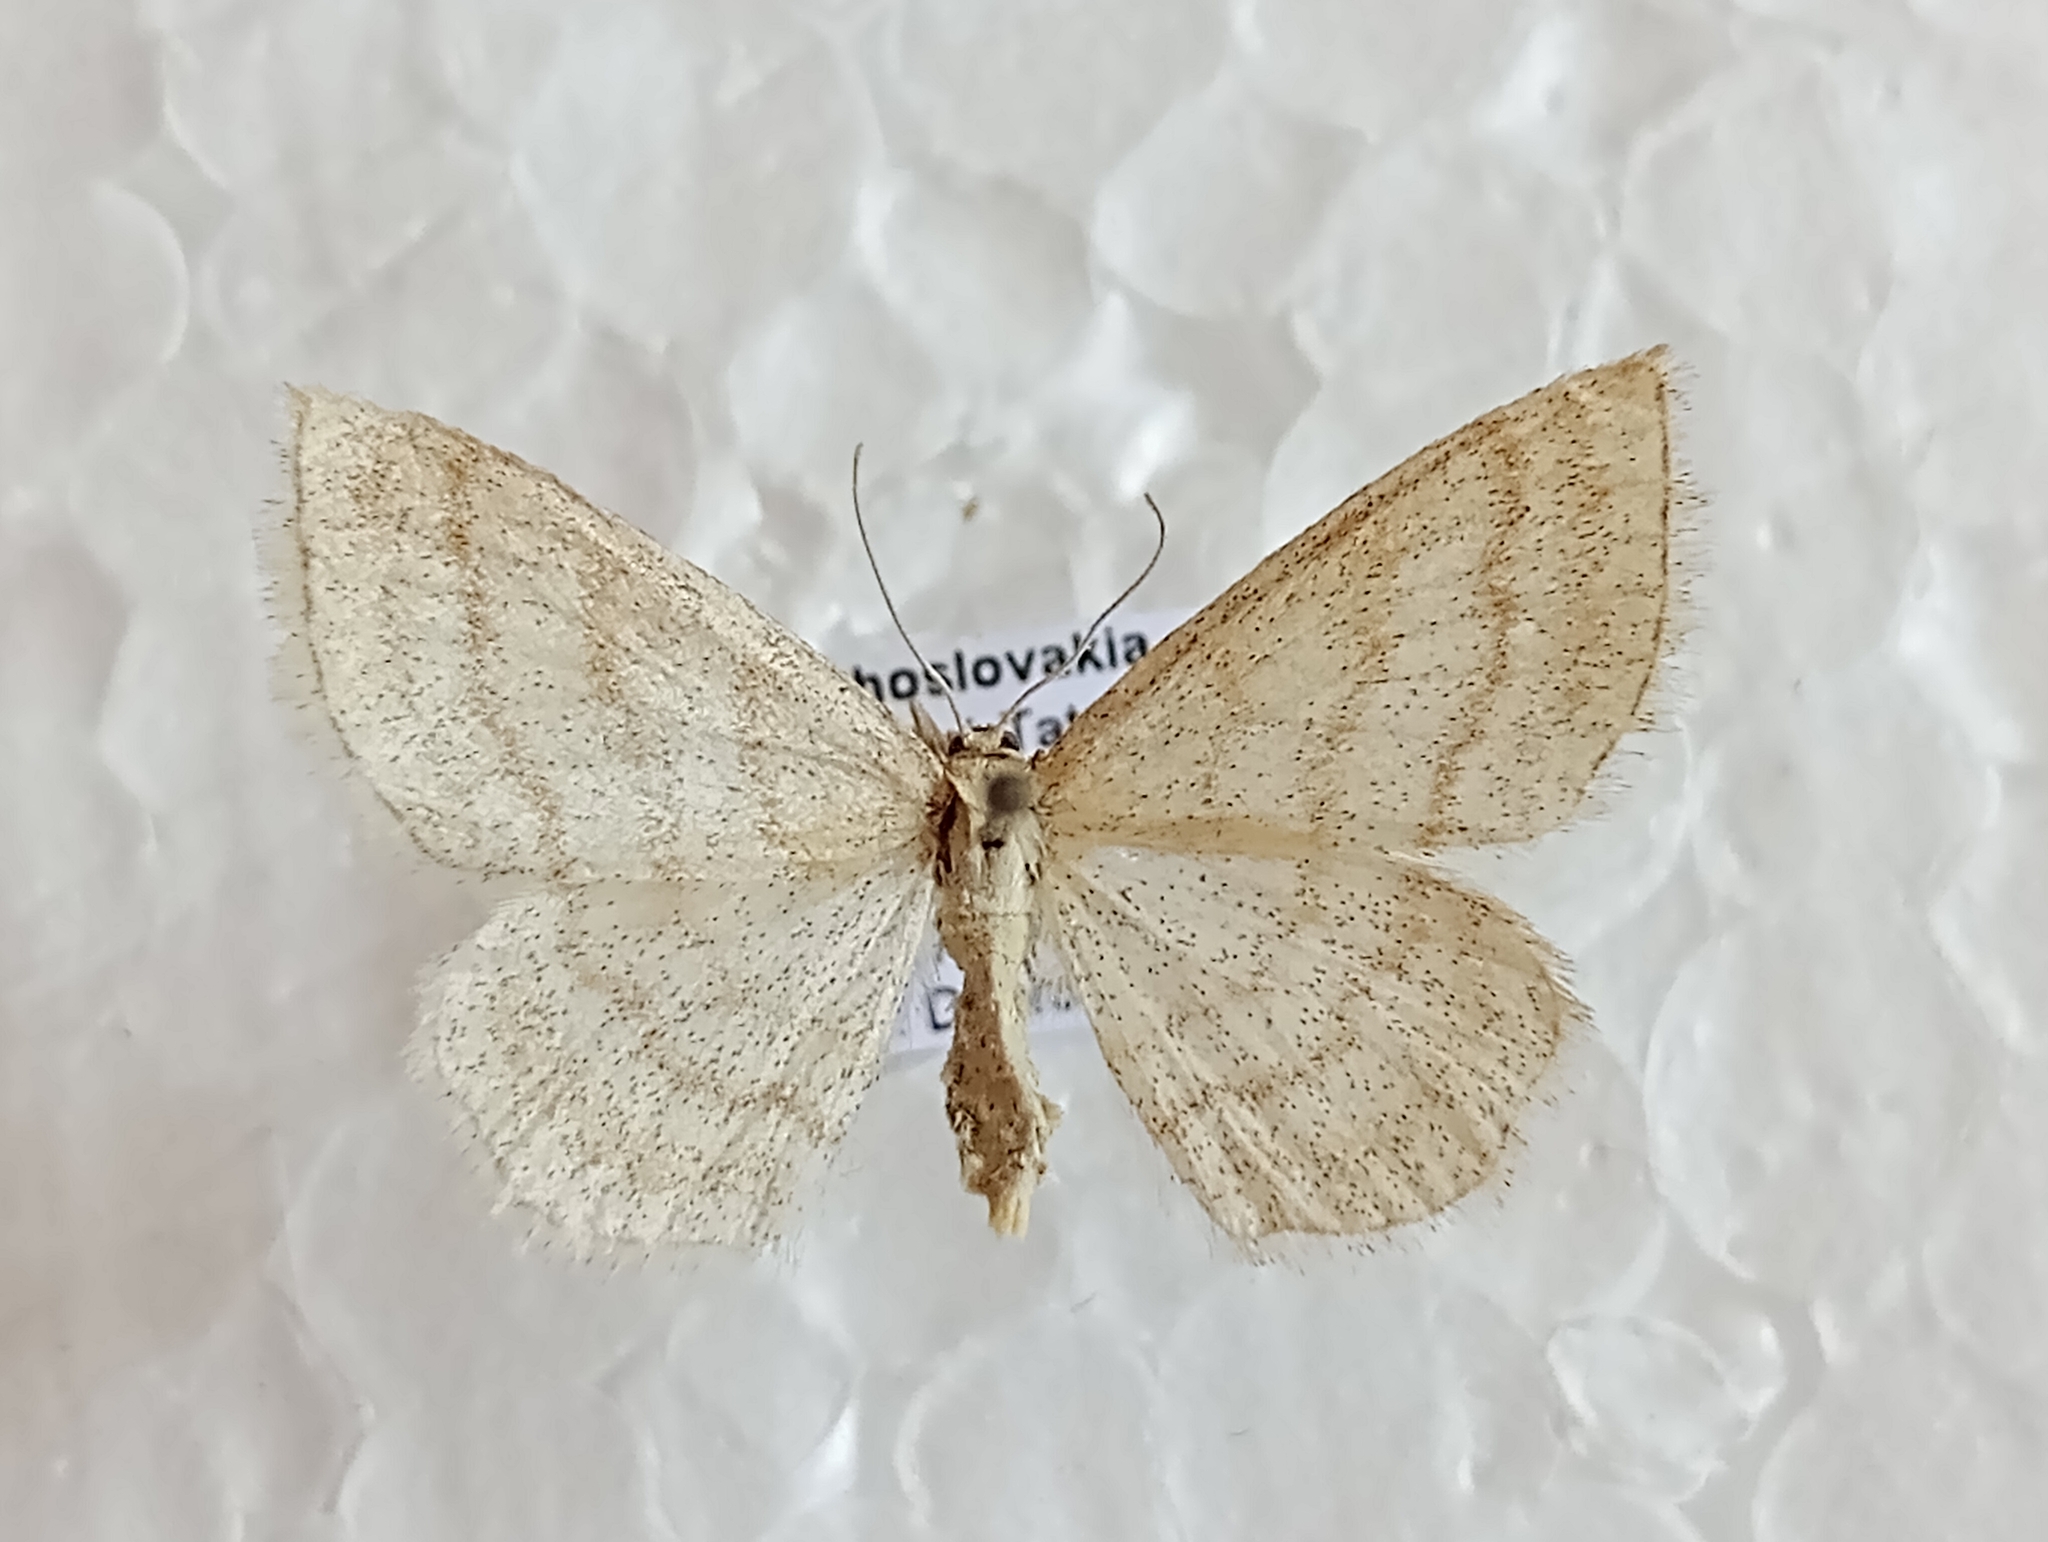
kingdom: Animalia
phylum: Arthropoda
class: Insecta
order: Lepidoptera
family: Geometridae
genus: Scopula
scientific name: Scopula ternata
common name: Smoky wave
